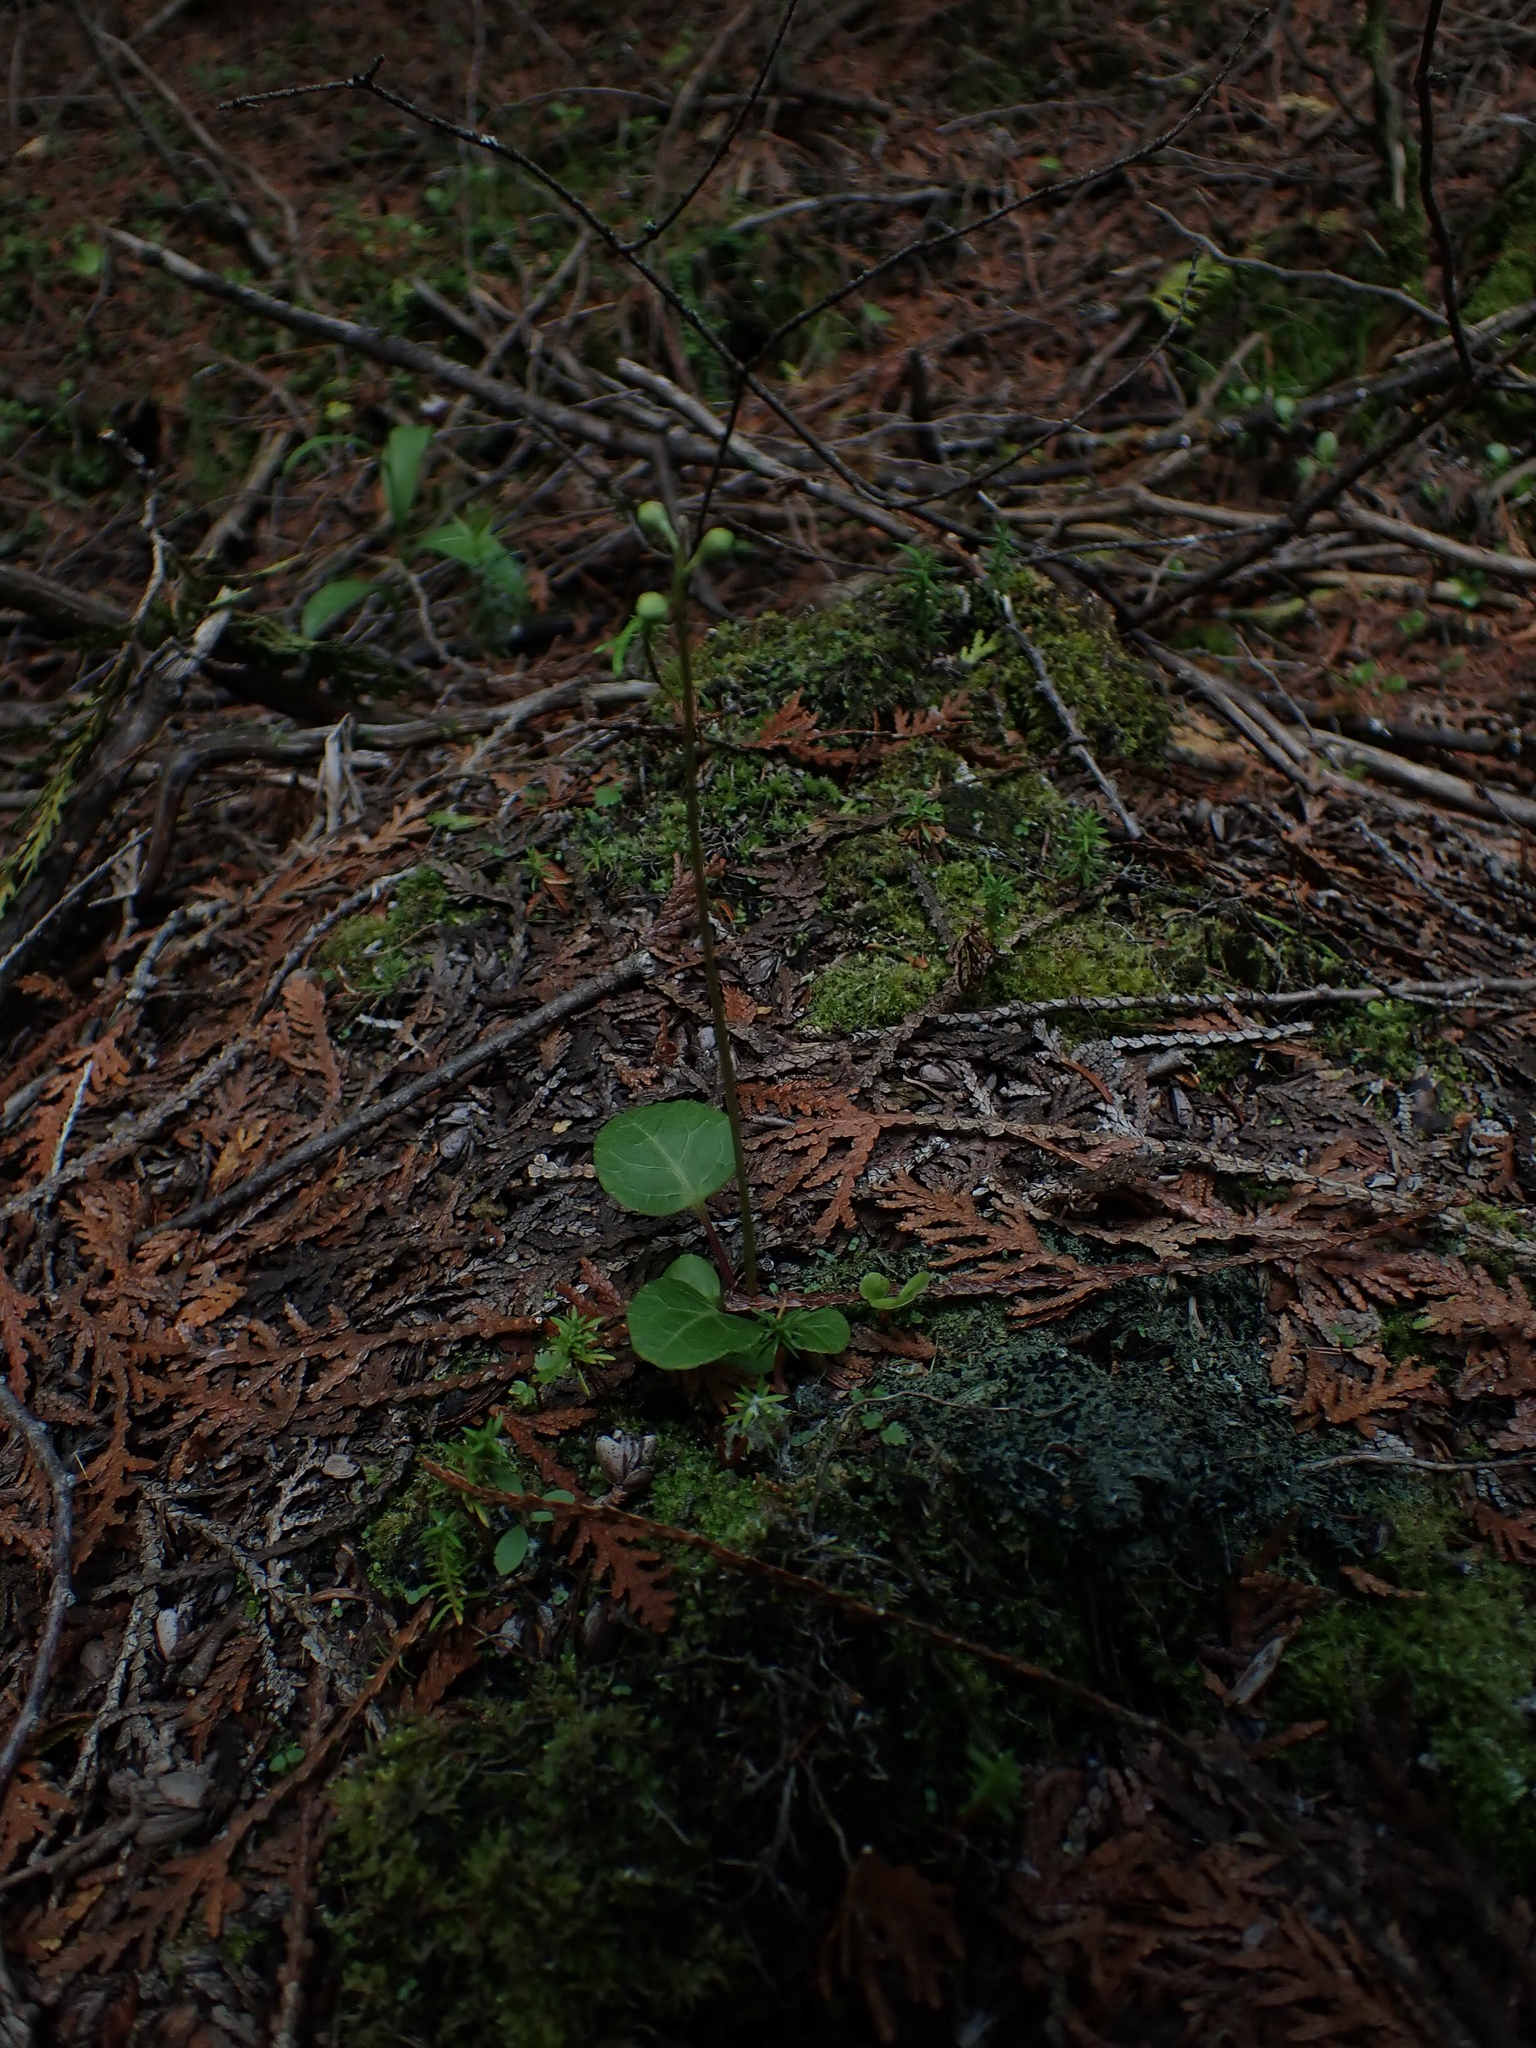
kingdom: Plantae
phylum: Tracheophyta
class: Magnoliopsida
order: Ericales
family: Ericaceae
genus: Pyrola
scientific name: Pyrola chlorantha
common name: Green wintergreen
